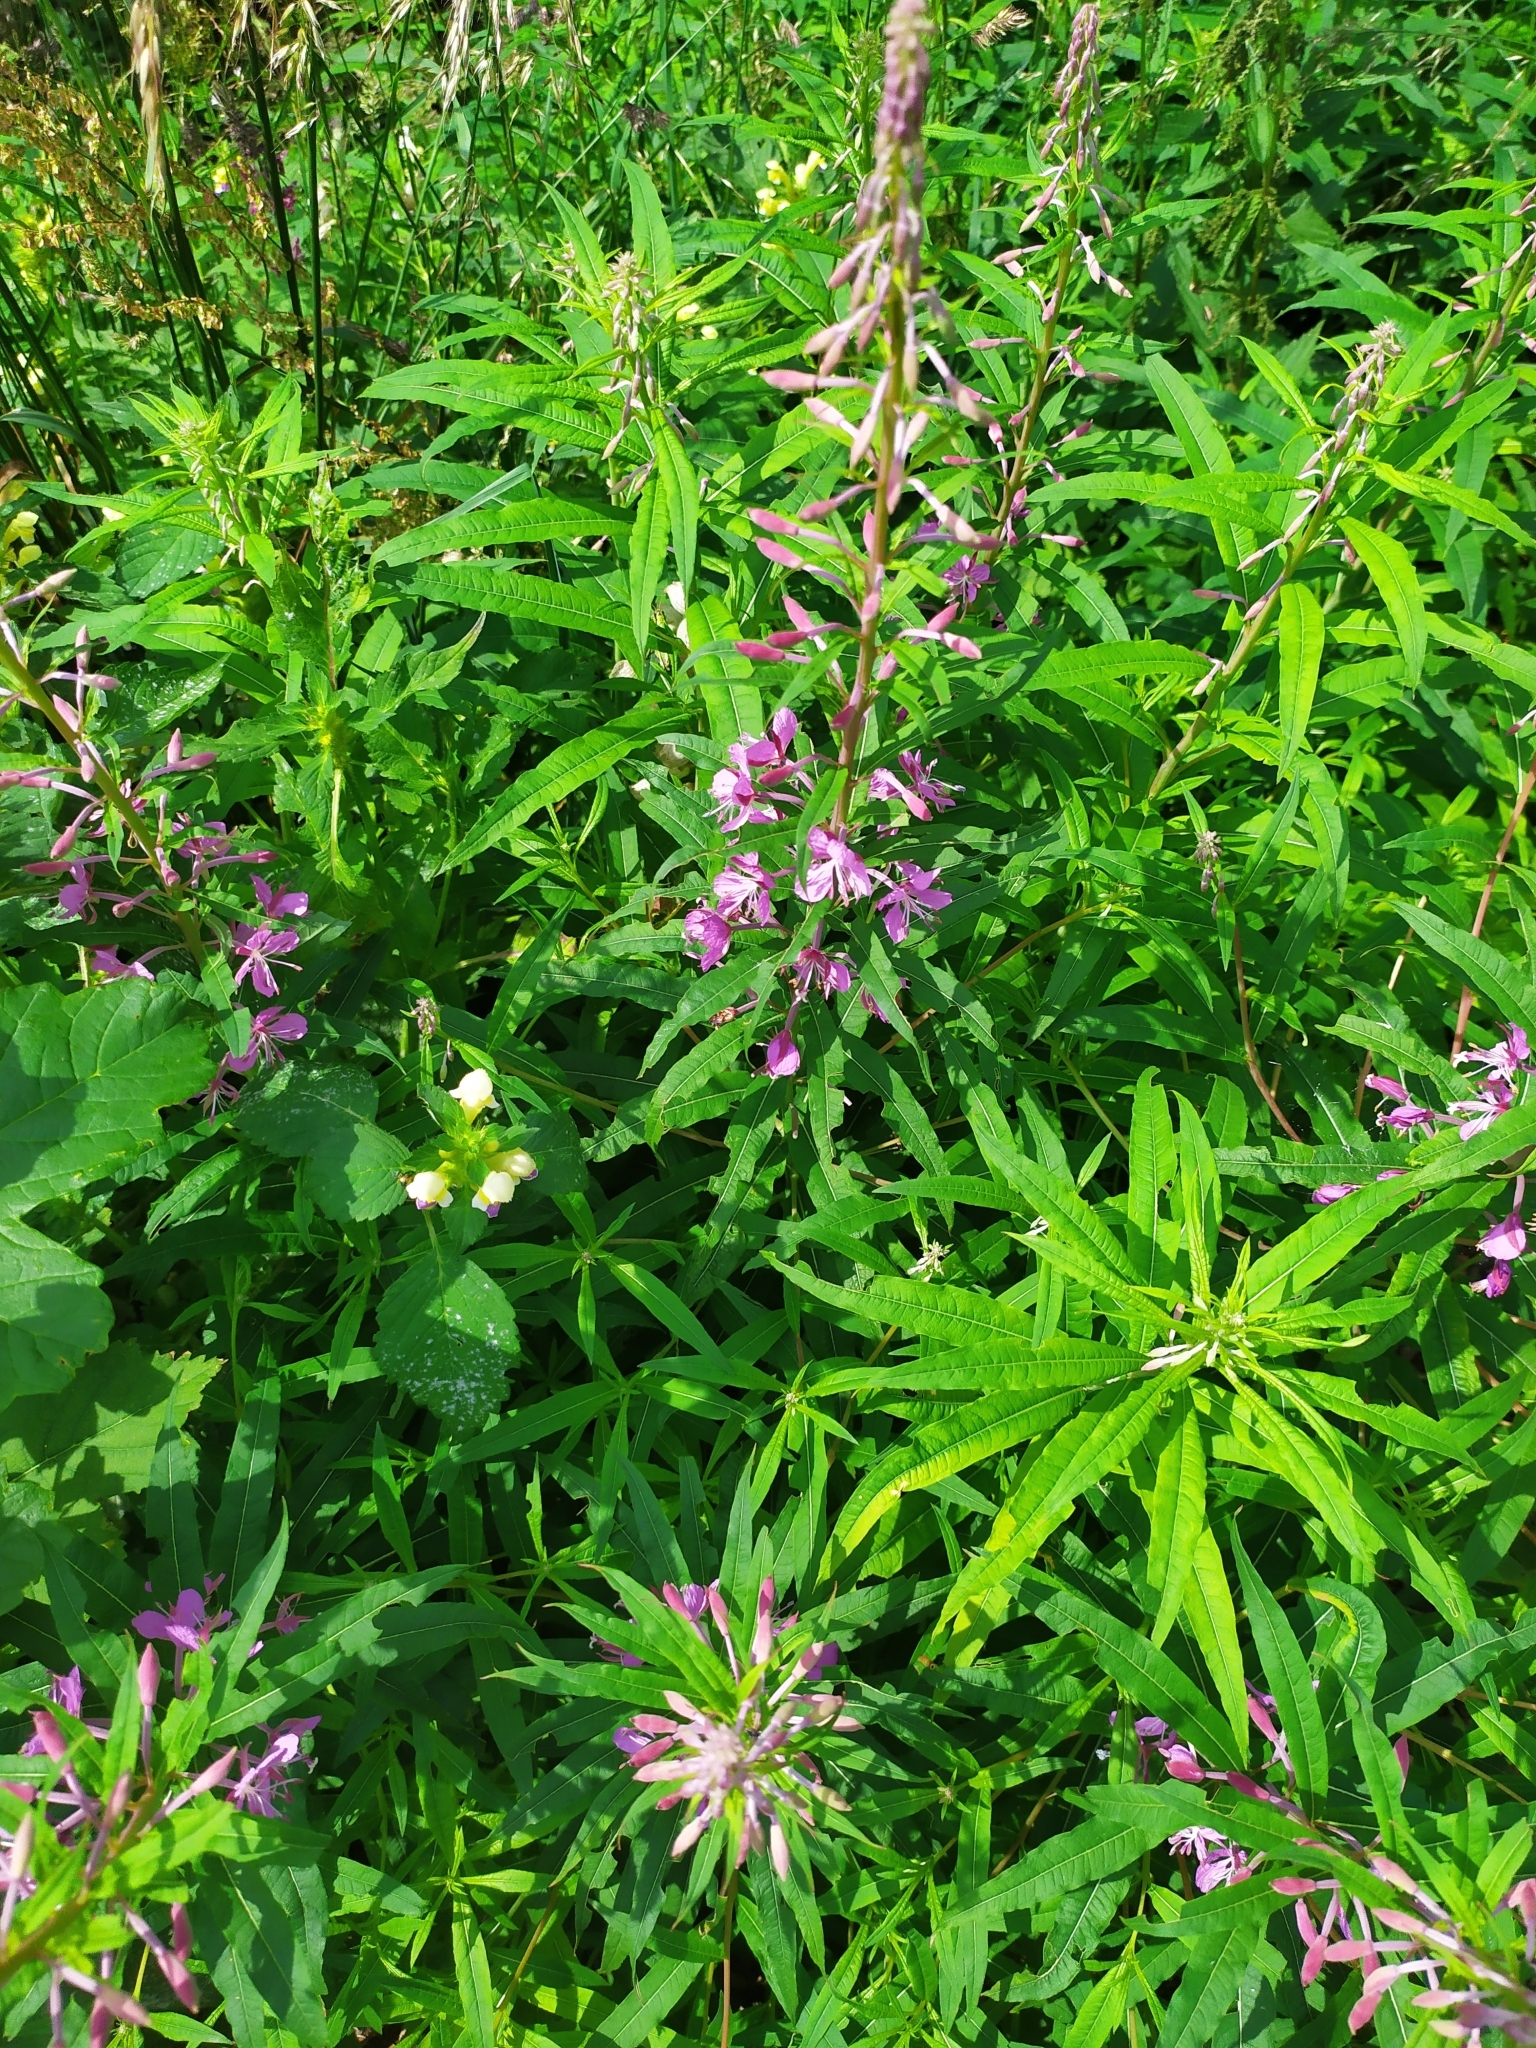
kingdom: Plantae
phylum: Tracheophyta
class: Magnoliopsida
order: Myrtales
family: Onagraceae
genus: Chamaenerion
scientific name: Chamaenerion angustifolium
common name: Fireweed
